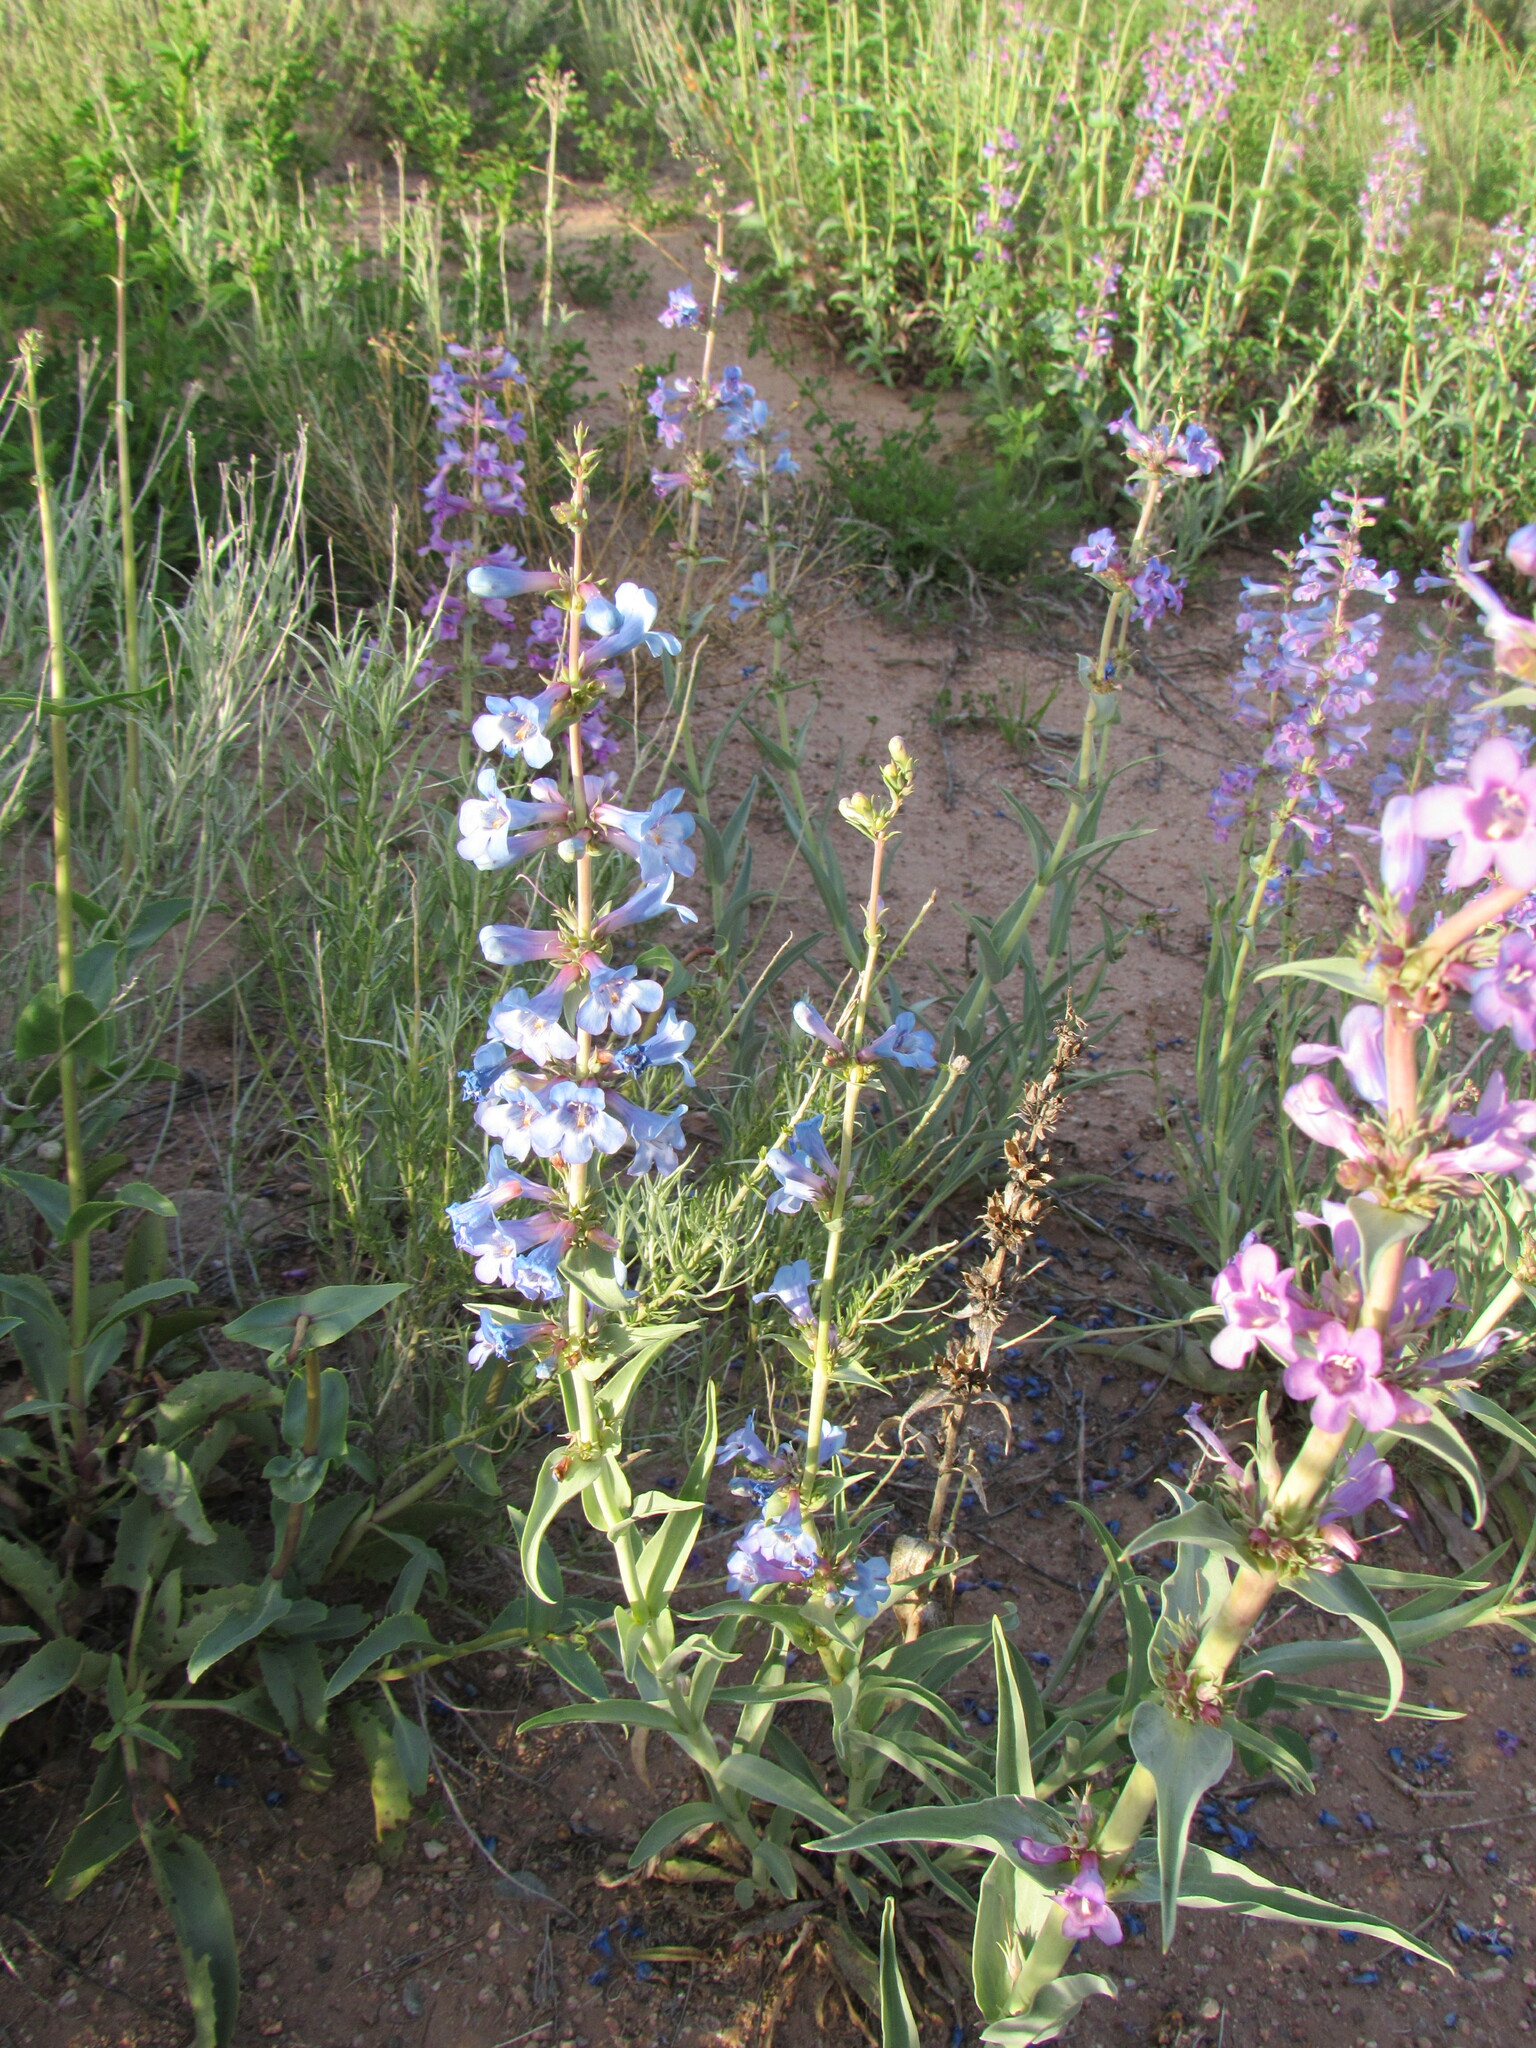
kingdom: Plantae
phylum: Tracheophyta
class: Magnoliopsida
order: Lamiales
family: Plantaginaceae
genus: Penstemon
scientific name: Penstemon angustifolius
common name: Narrow beardtongue
